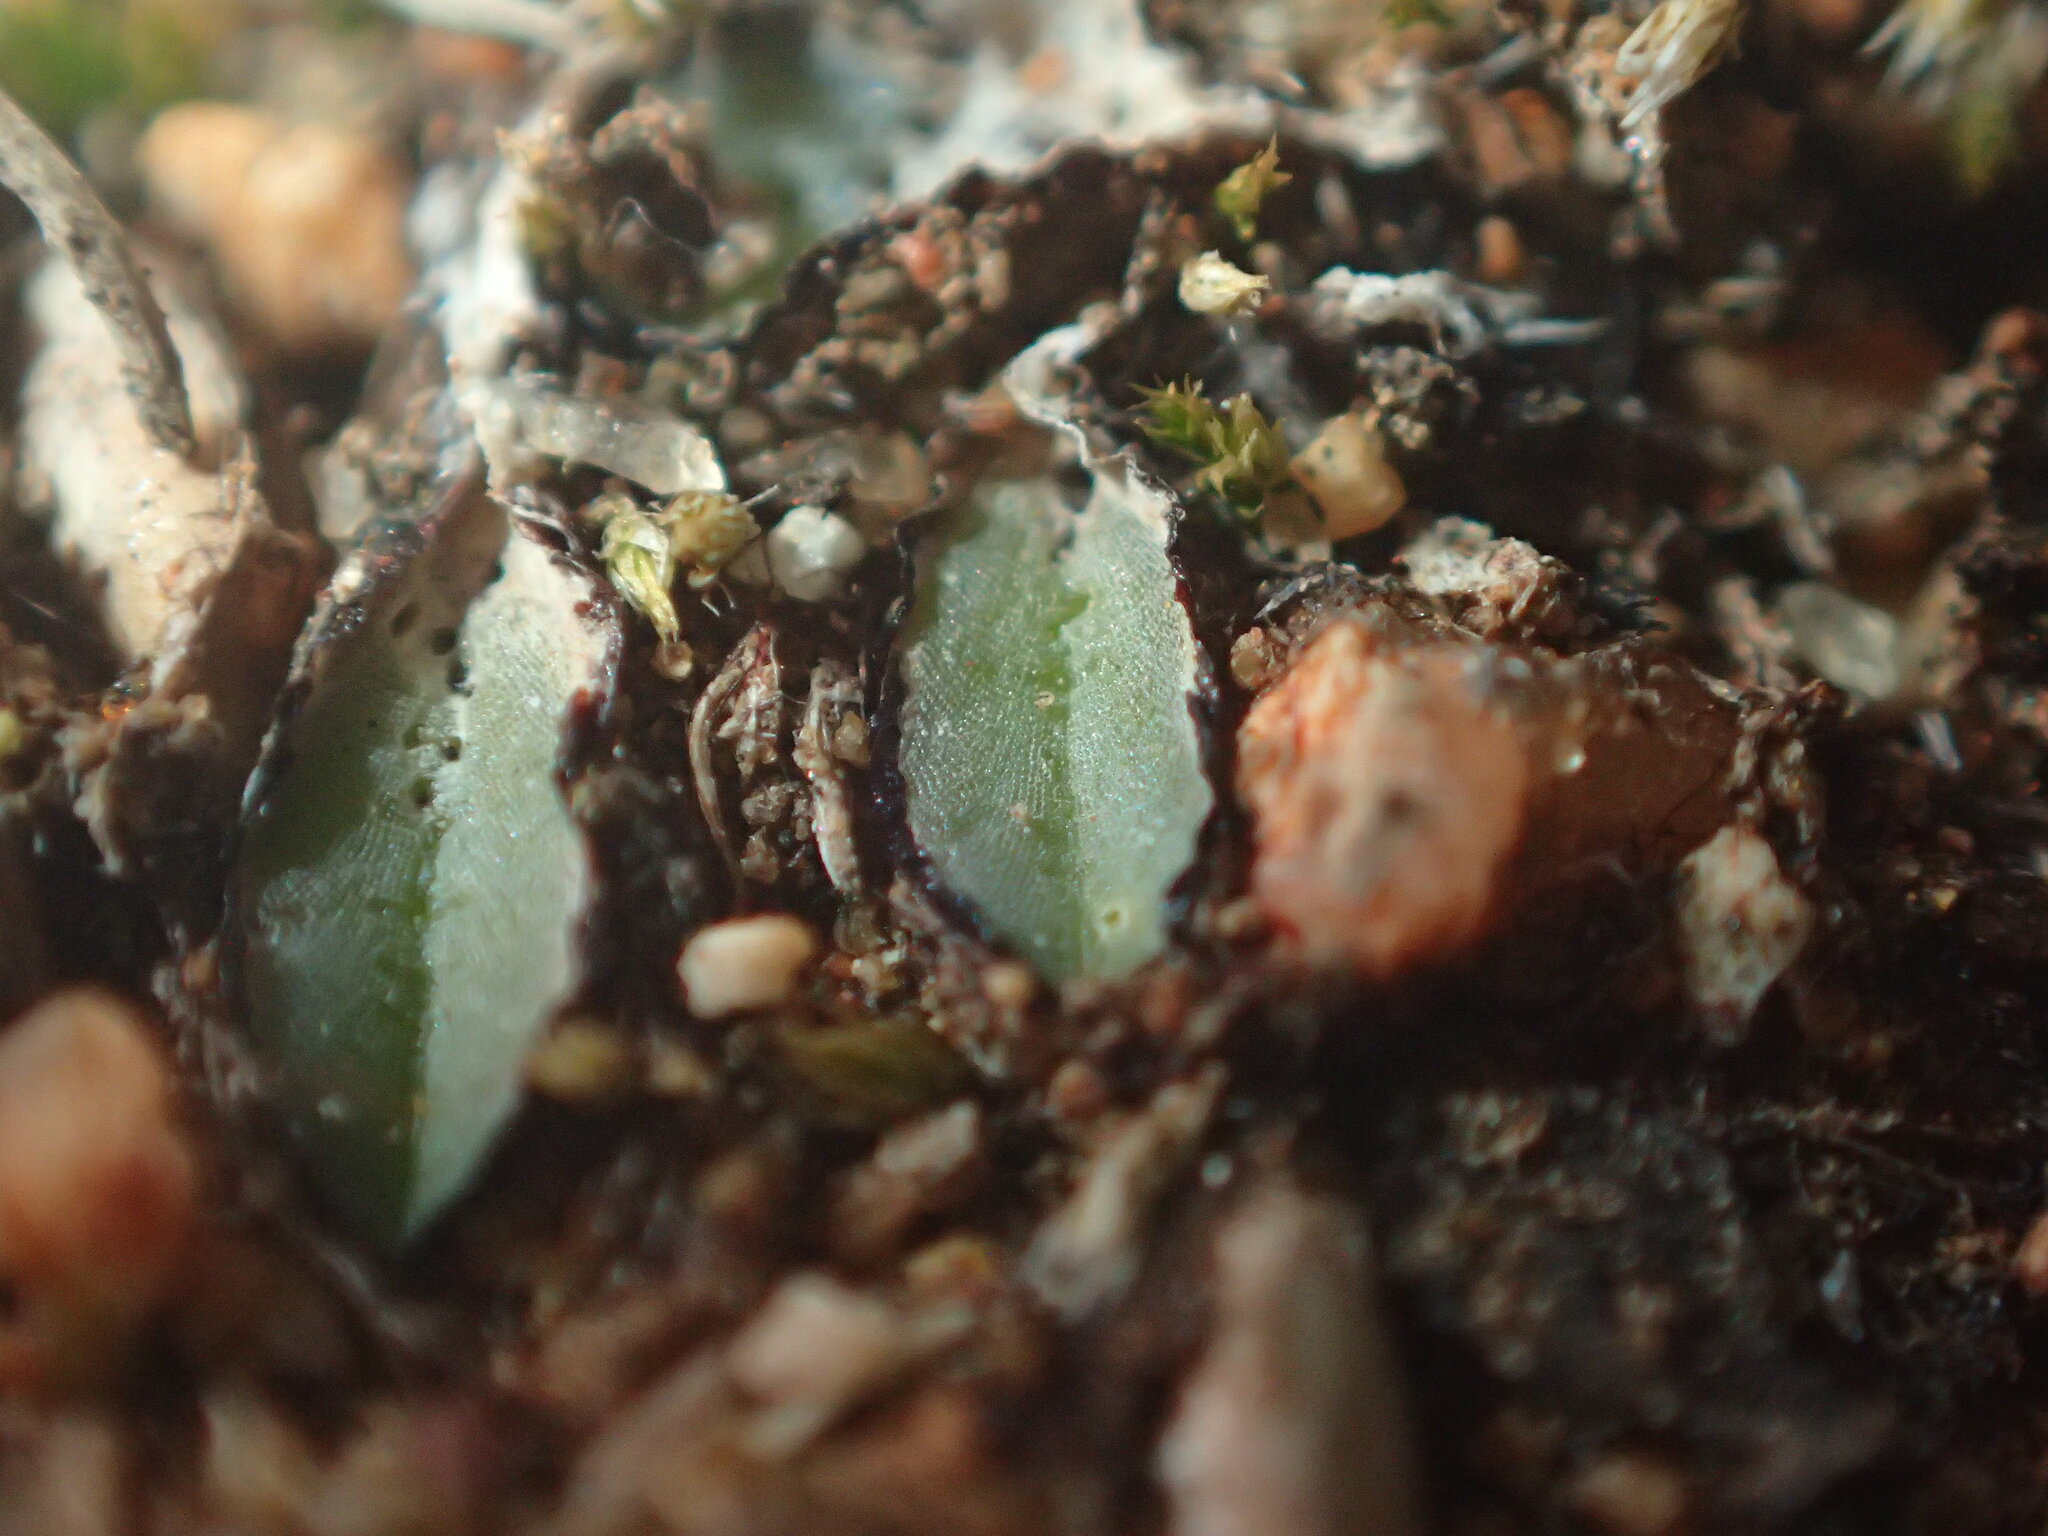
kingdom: Plantae
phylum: Marchantiophyta
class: Marchantiopsida
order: Marchantiales
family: Ricciaceae
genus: Riccia
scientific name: Riccia inflexa
